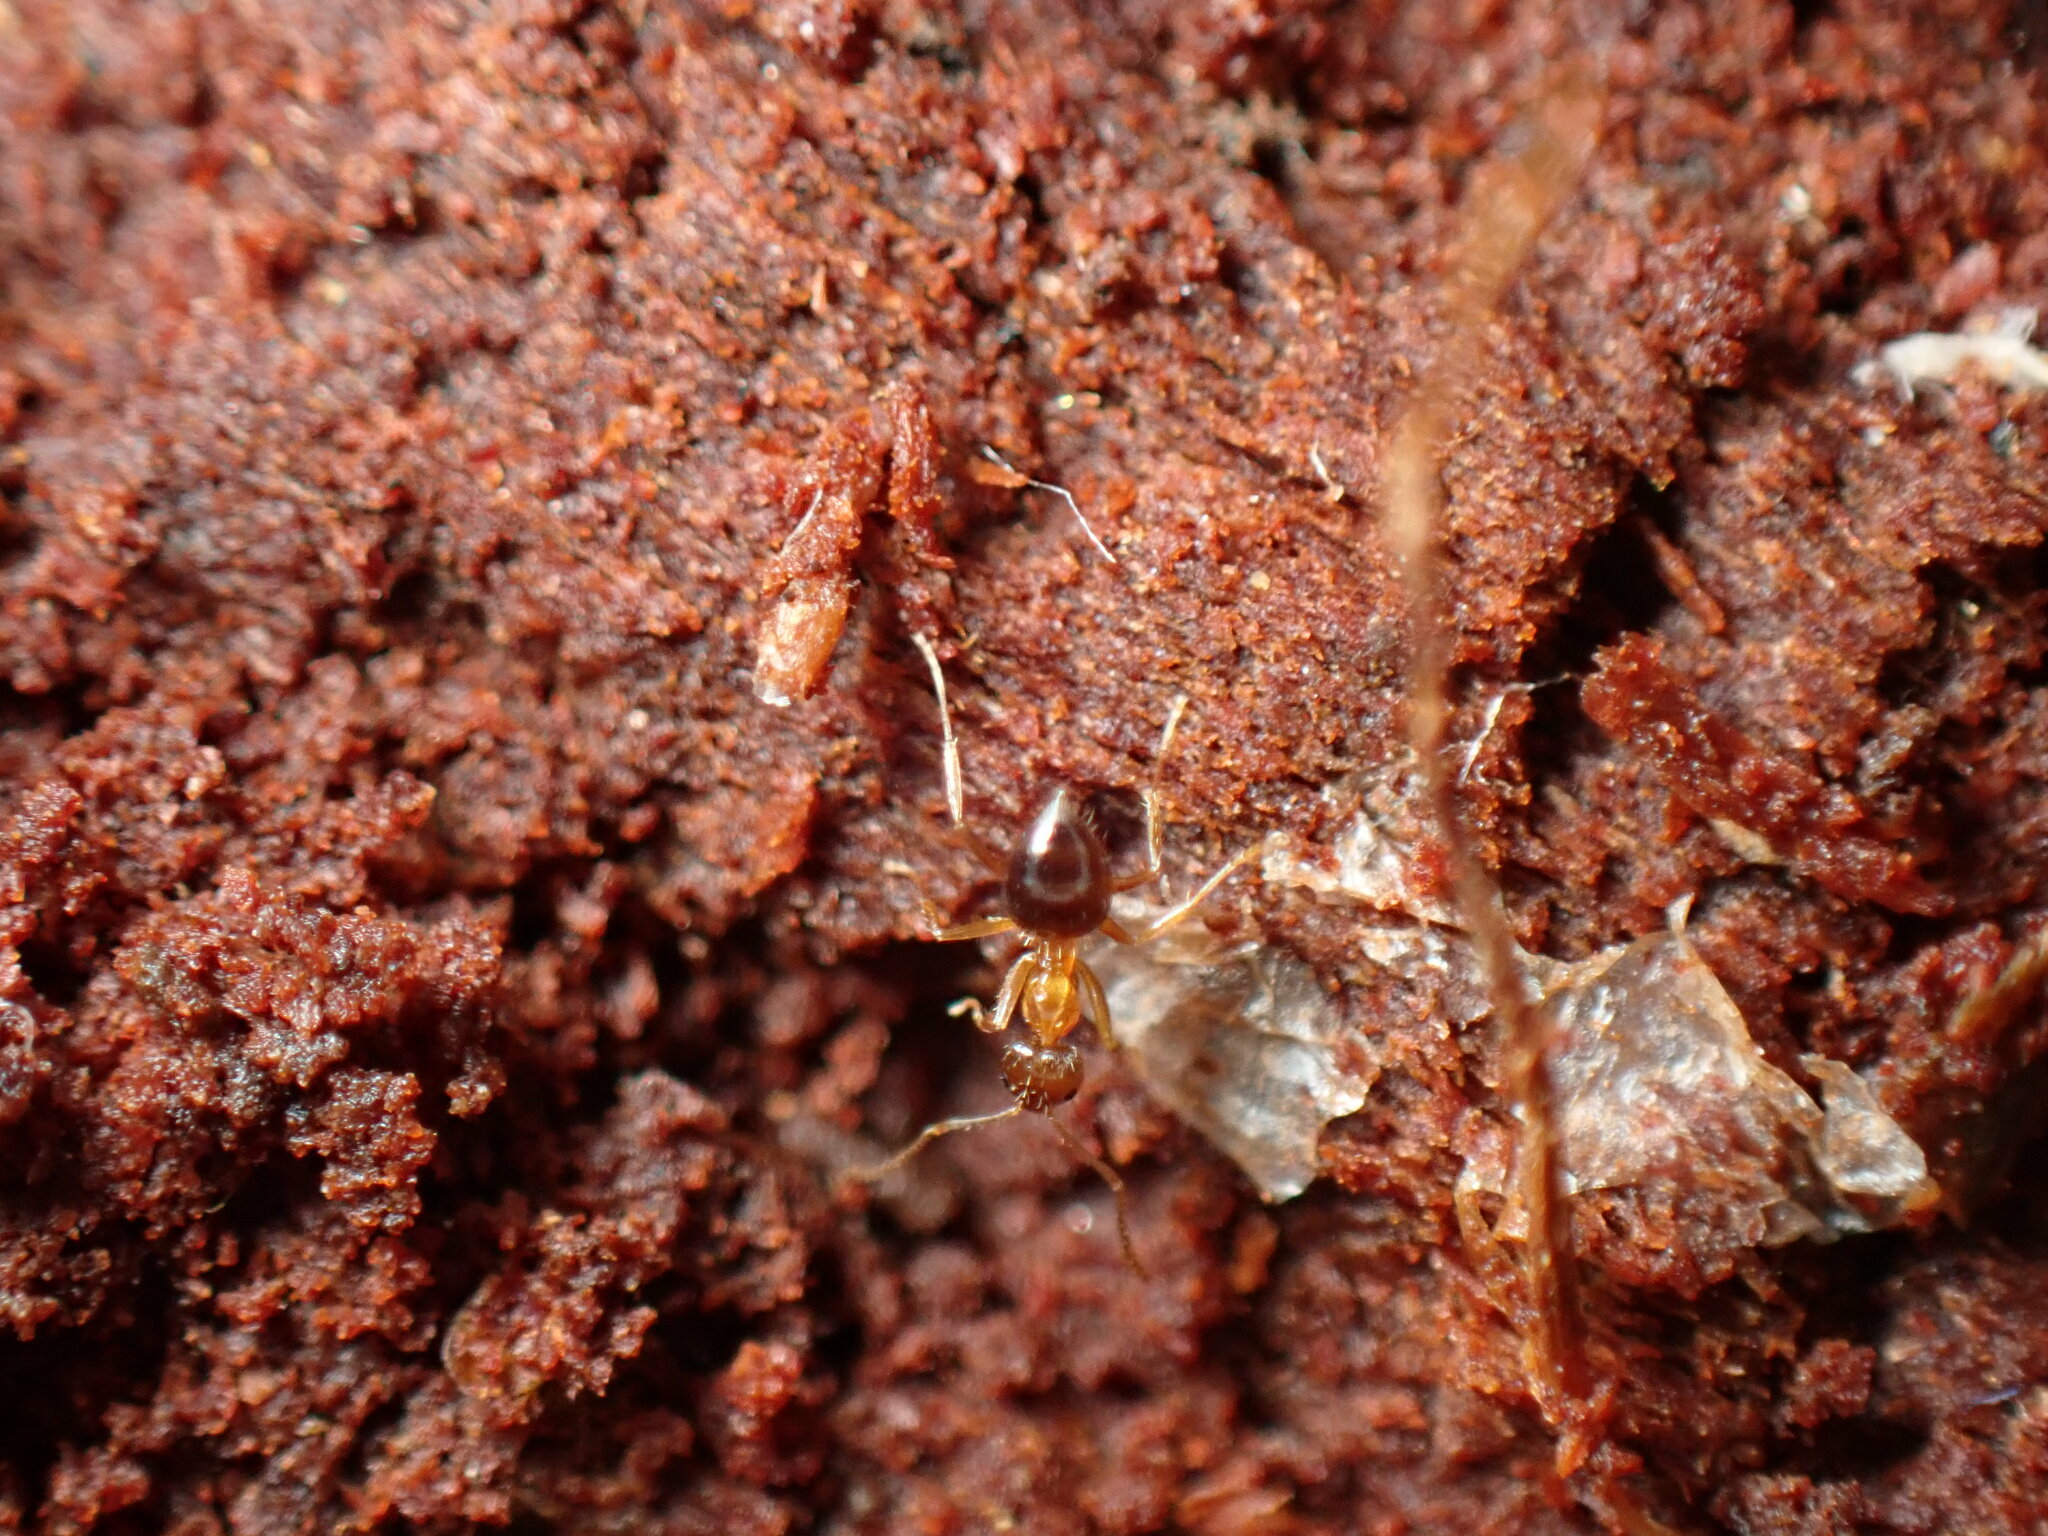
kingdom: Animalia
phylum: Arthropoda
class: Insecta
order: Hymenoptera
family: Formicidae
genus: Paratrechina
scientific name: Paratrechina flavipes
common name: Eastern asian formicine ant
